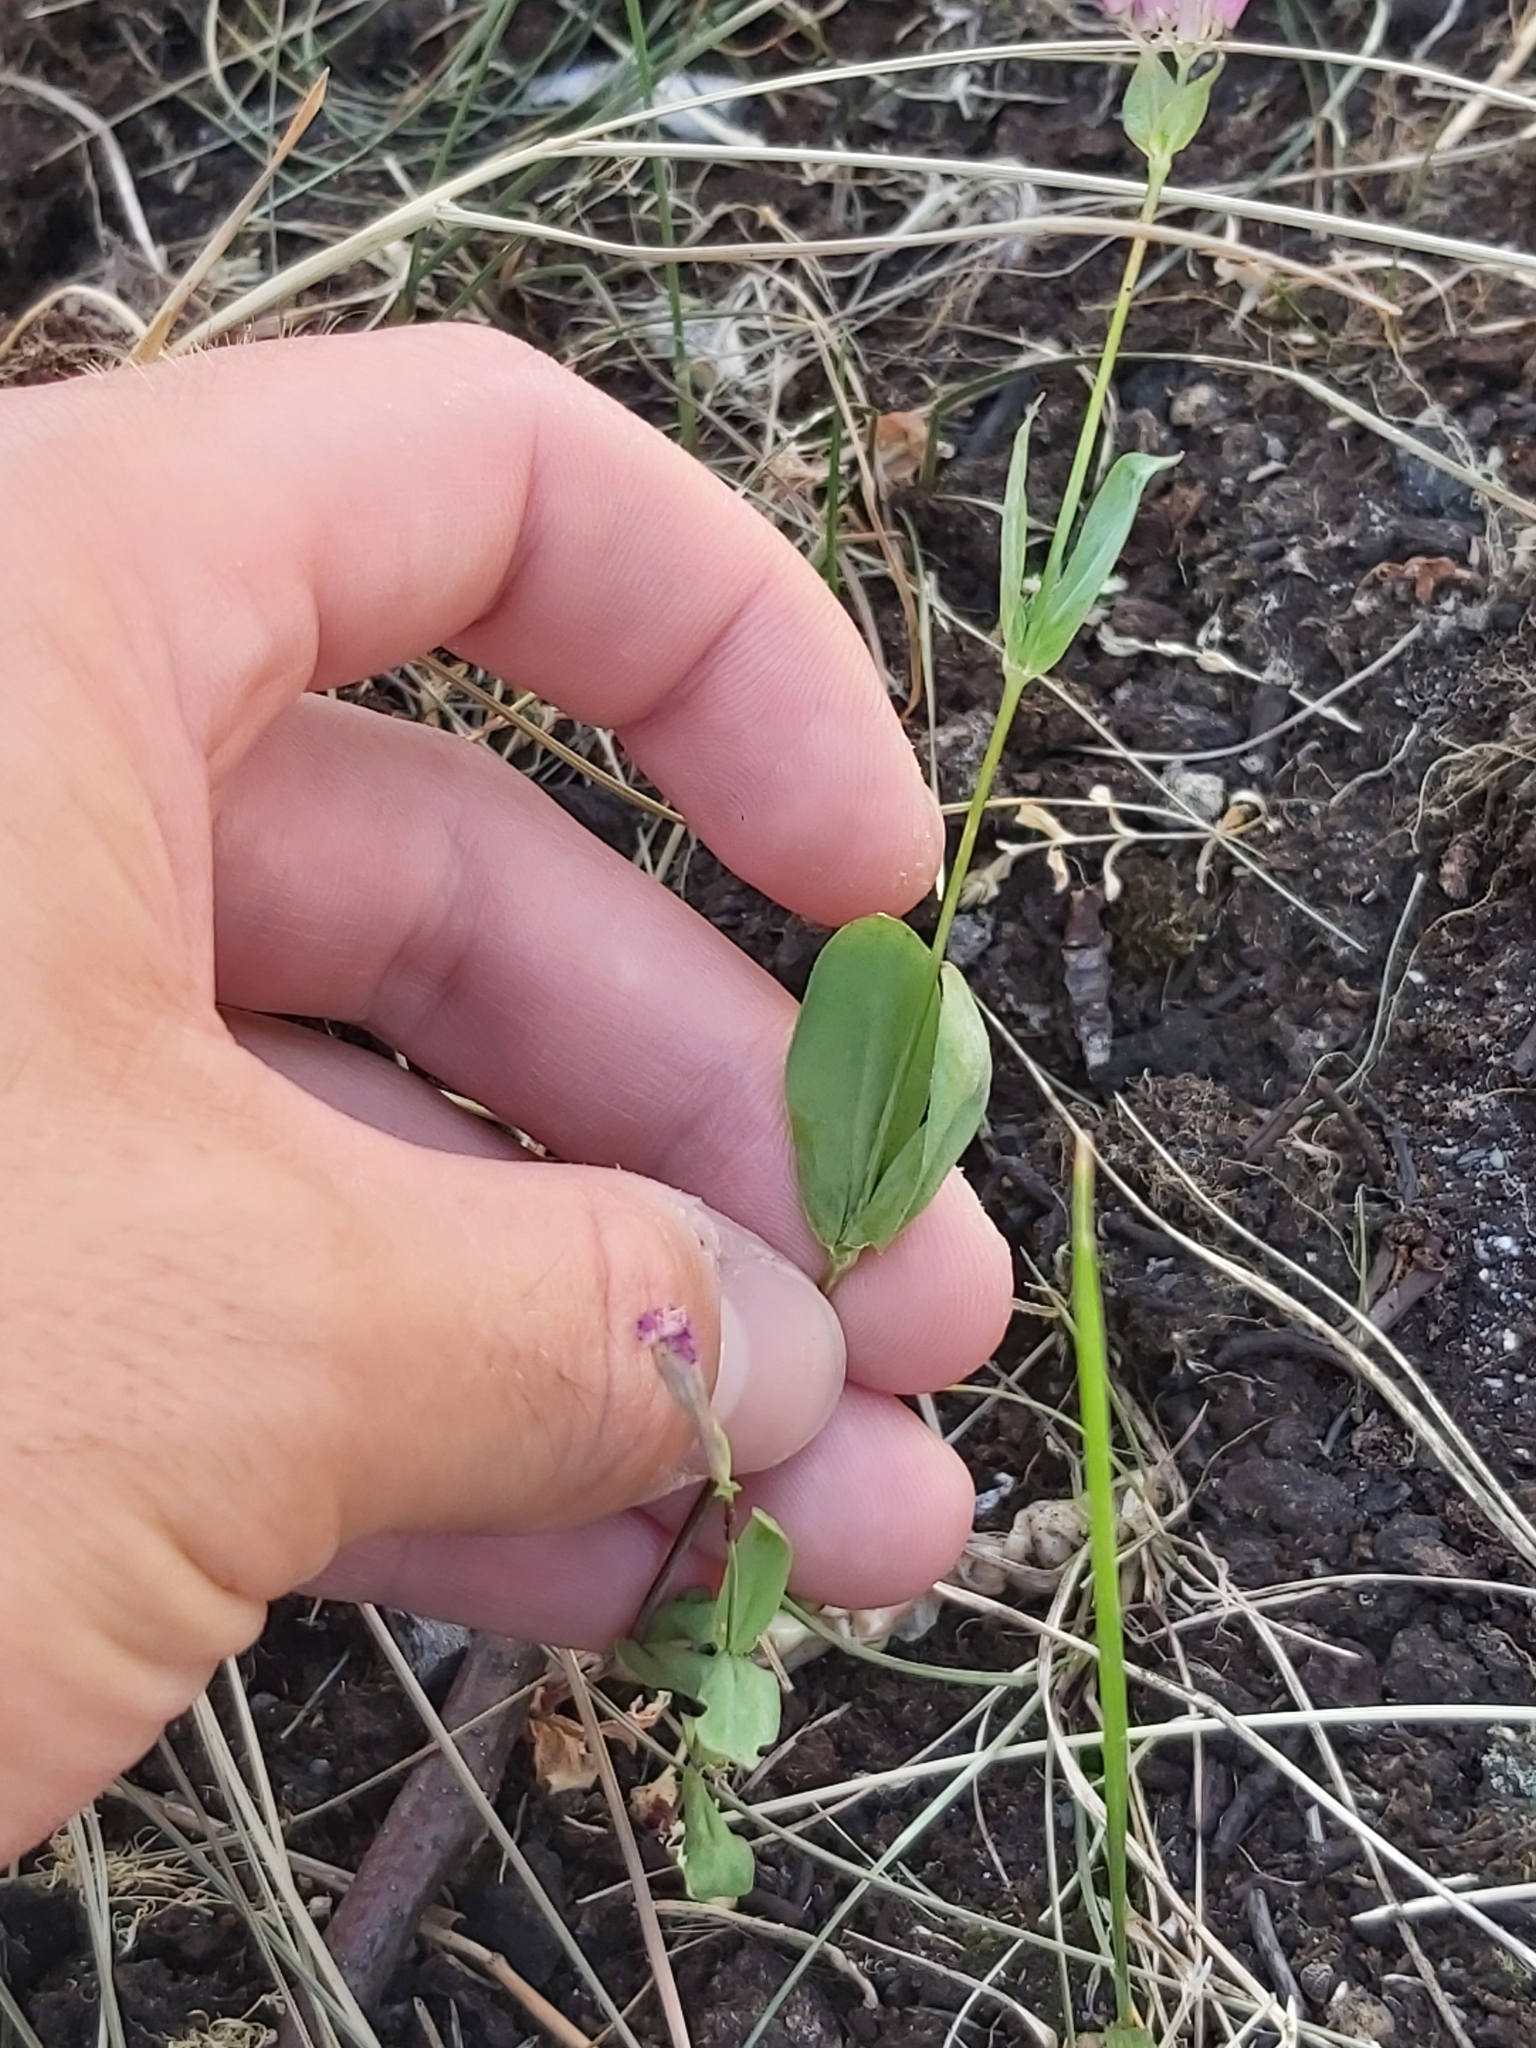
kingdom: Plantae
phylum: Tracheophyta
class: Magnoliopsida
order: Caryophyllales
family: Caryophyllaceae
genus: Saponaria
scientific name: Saponaria ocymoides
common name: Rock soapwort
